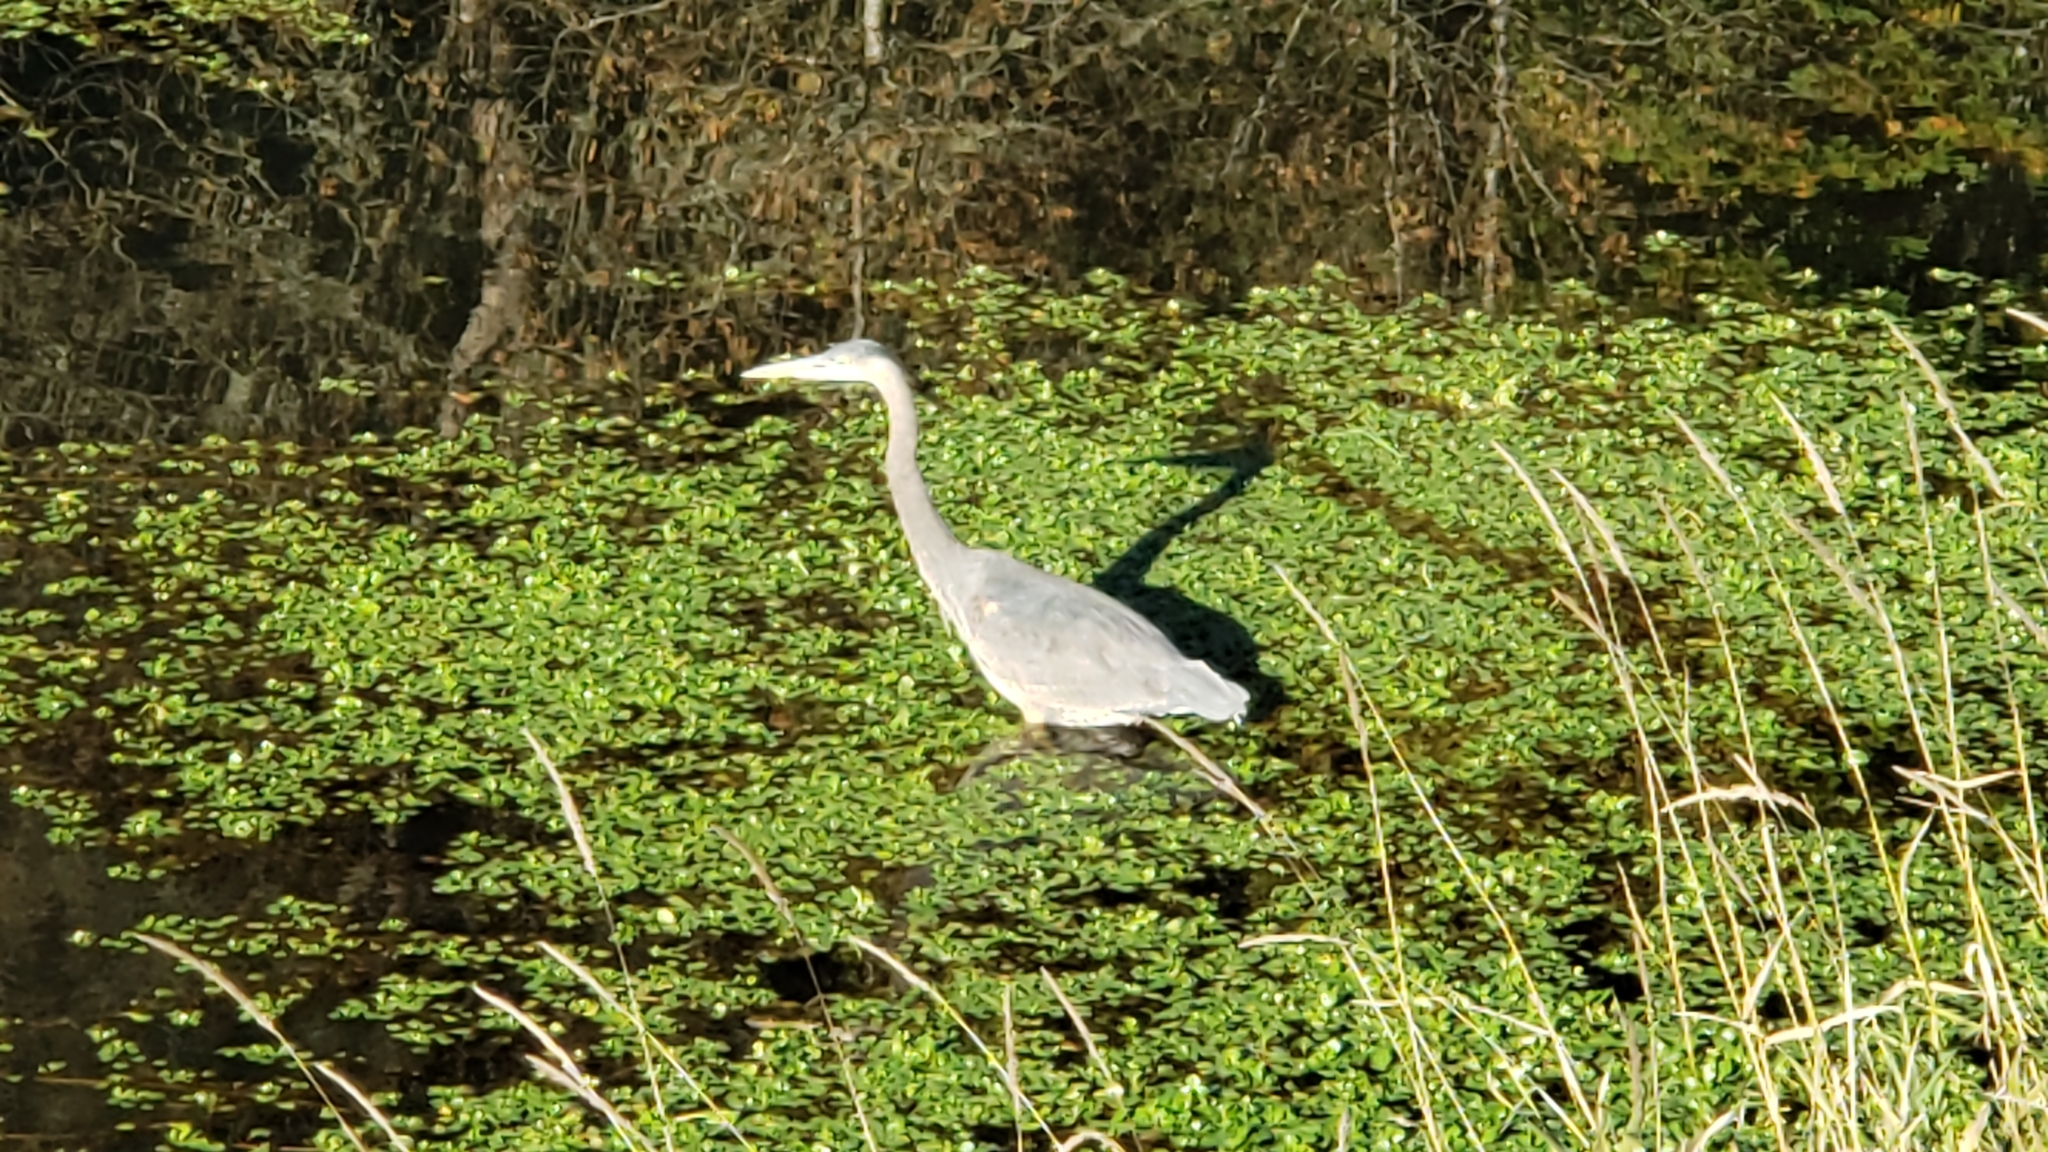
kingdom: Animalia
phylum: Chordata
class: Aves
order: Pelecaniformes
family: Ardeidae
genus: Ardea
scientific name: Ardea herodias
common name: Great blue heron
